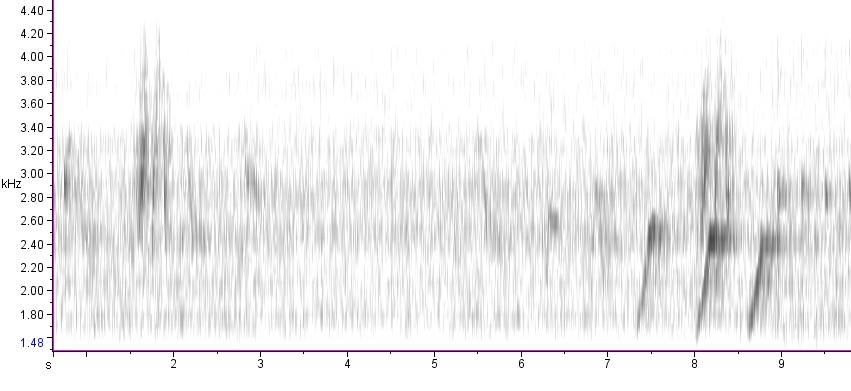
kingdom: Animalia
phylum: Chordata
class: Aves
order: Passeriformes
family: Tyrannidae
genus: Empidonax
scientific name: Empidonax alnorum
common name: Alder flycatcher
